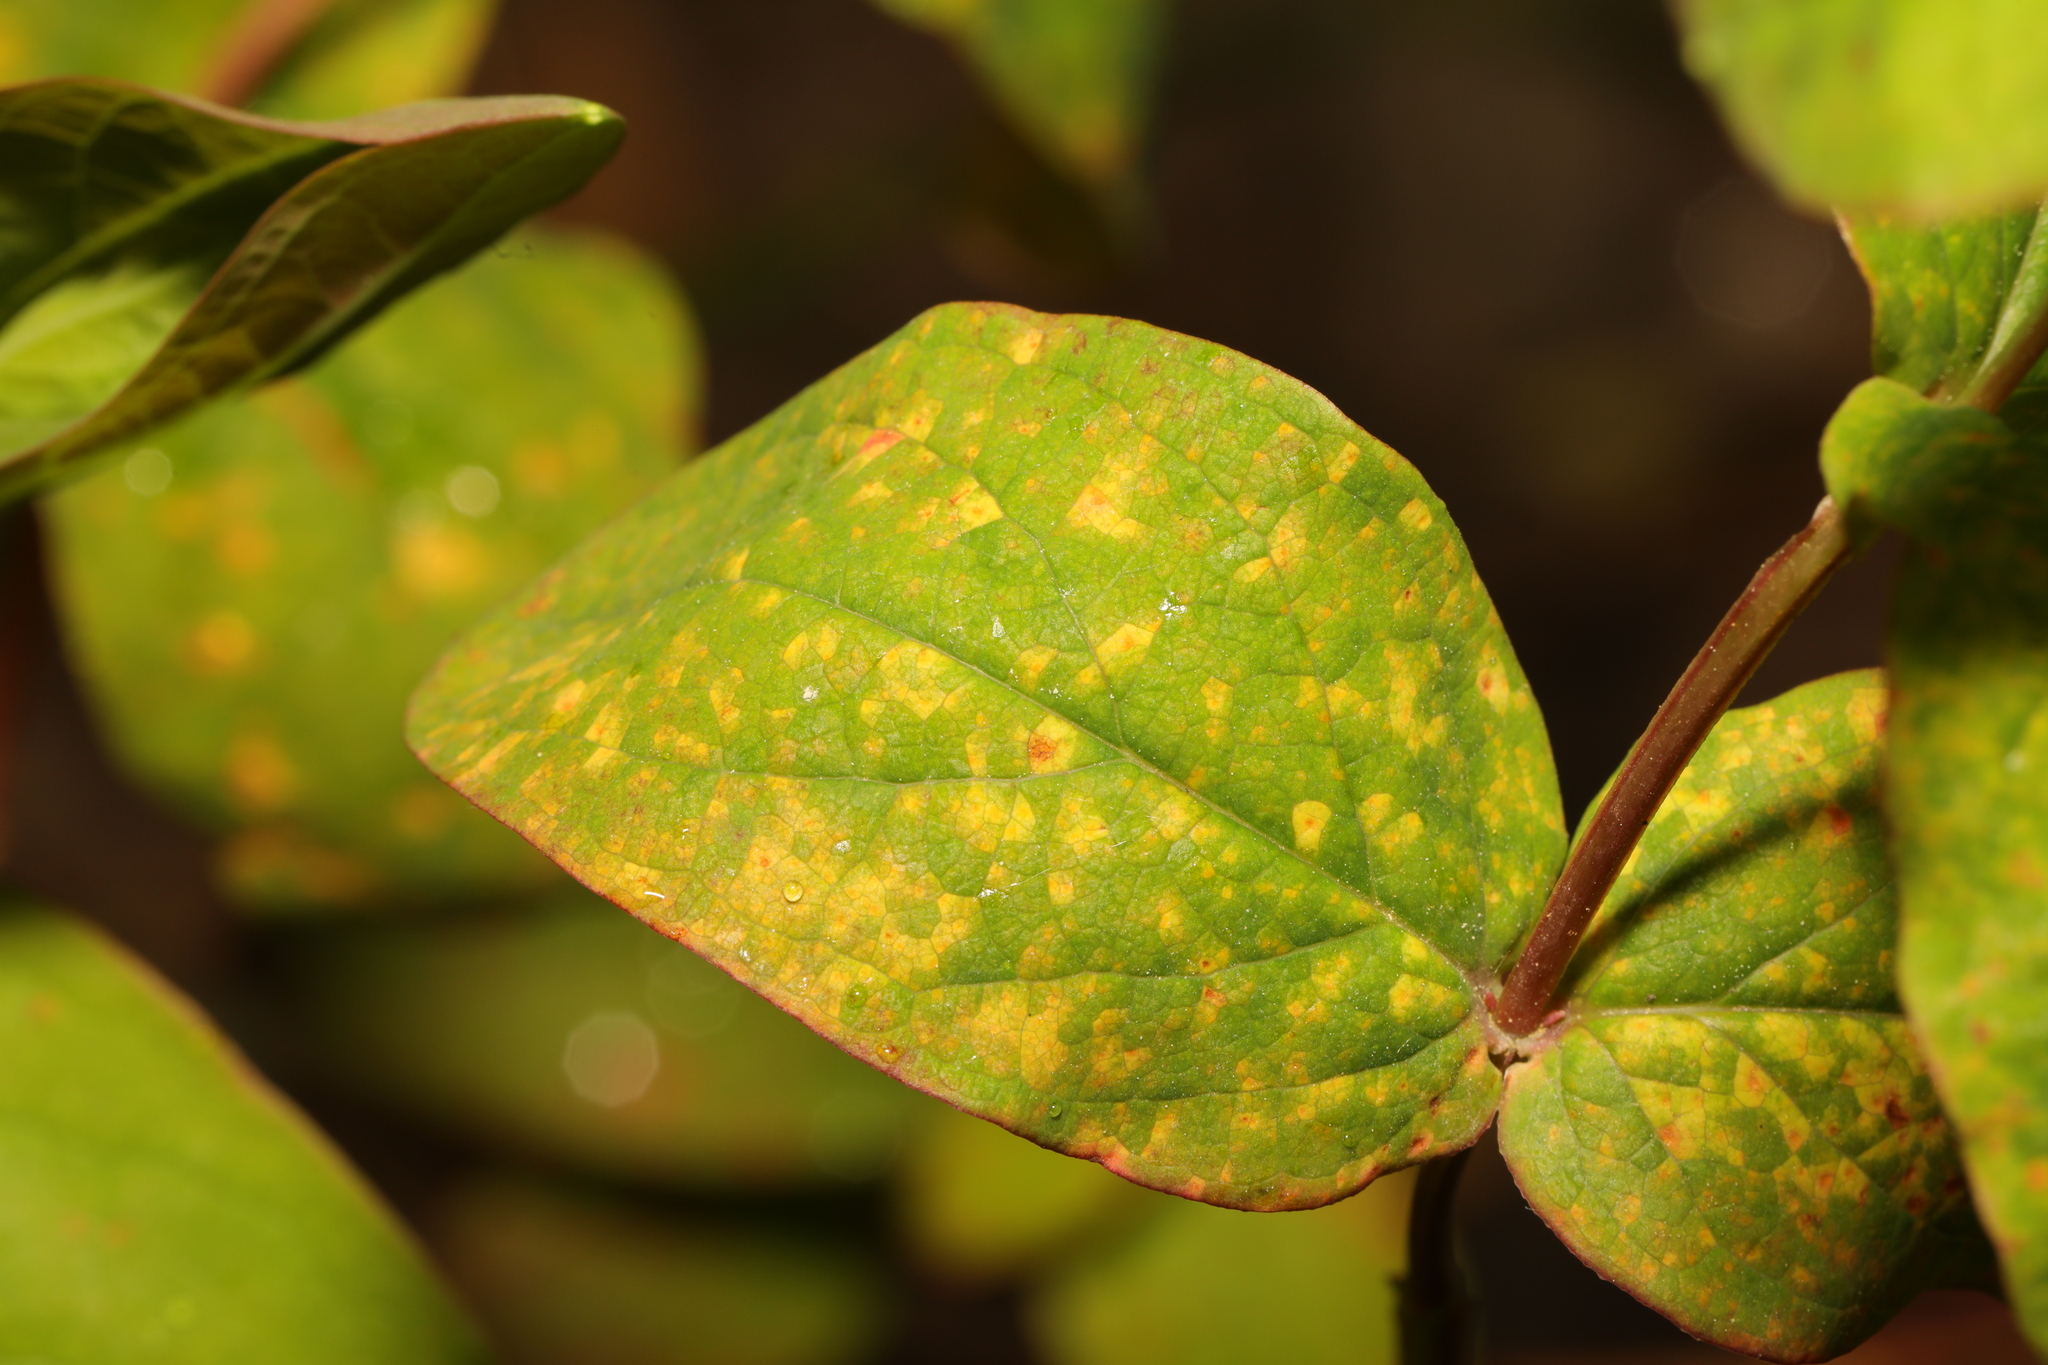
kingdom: Fungi
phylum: Basidiomycota
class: Pucciniomycetes
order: Pucciniales
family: Melampsoraceae
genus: Melampsora
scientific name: Melampsora
